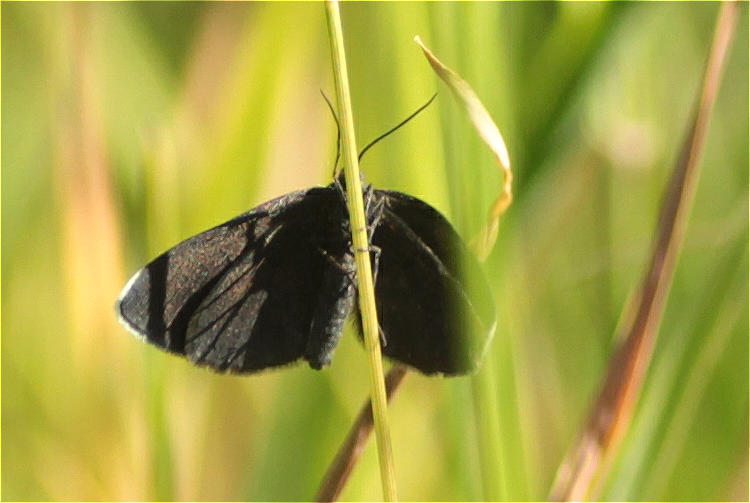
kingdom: Animalia
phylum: Arthropoda
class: Insecta
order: Lepidoptera
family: Geometridae
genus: Odezia
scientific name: Odezia atrata
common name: Chimney sweeper
